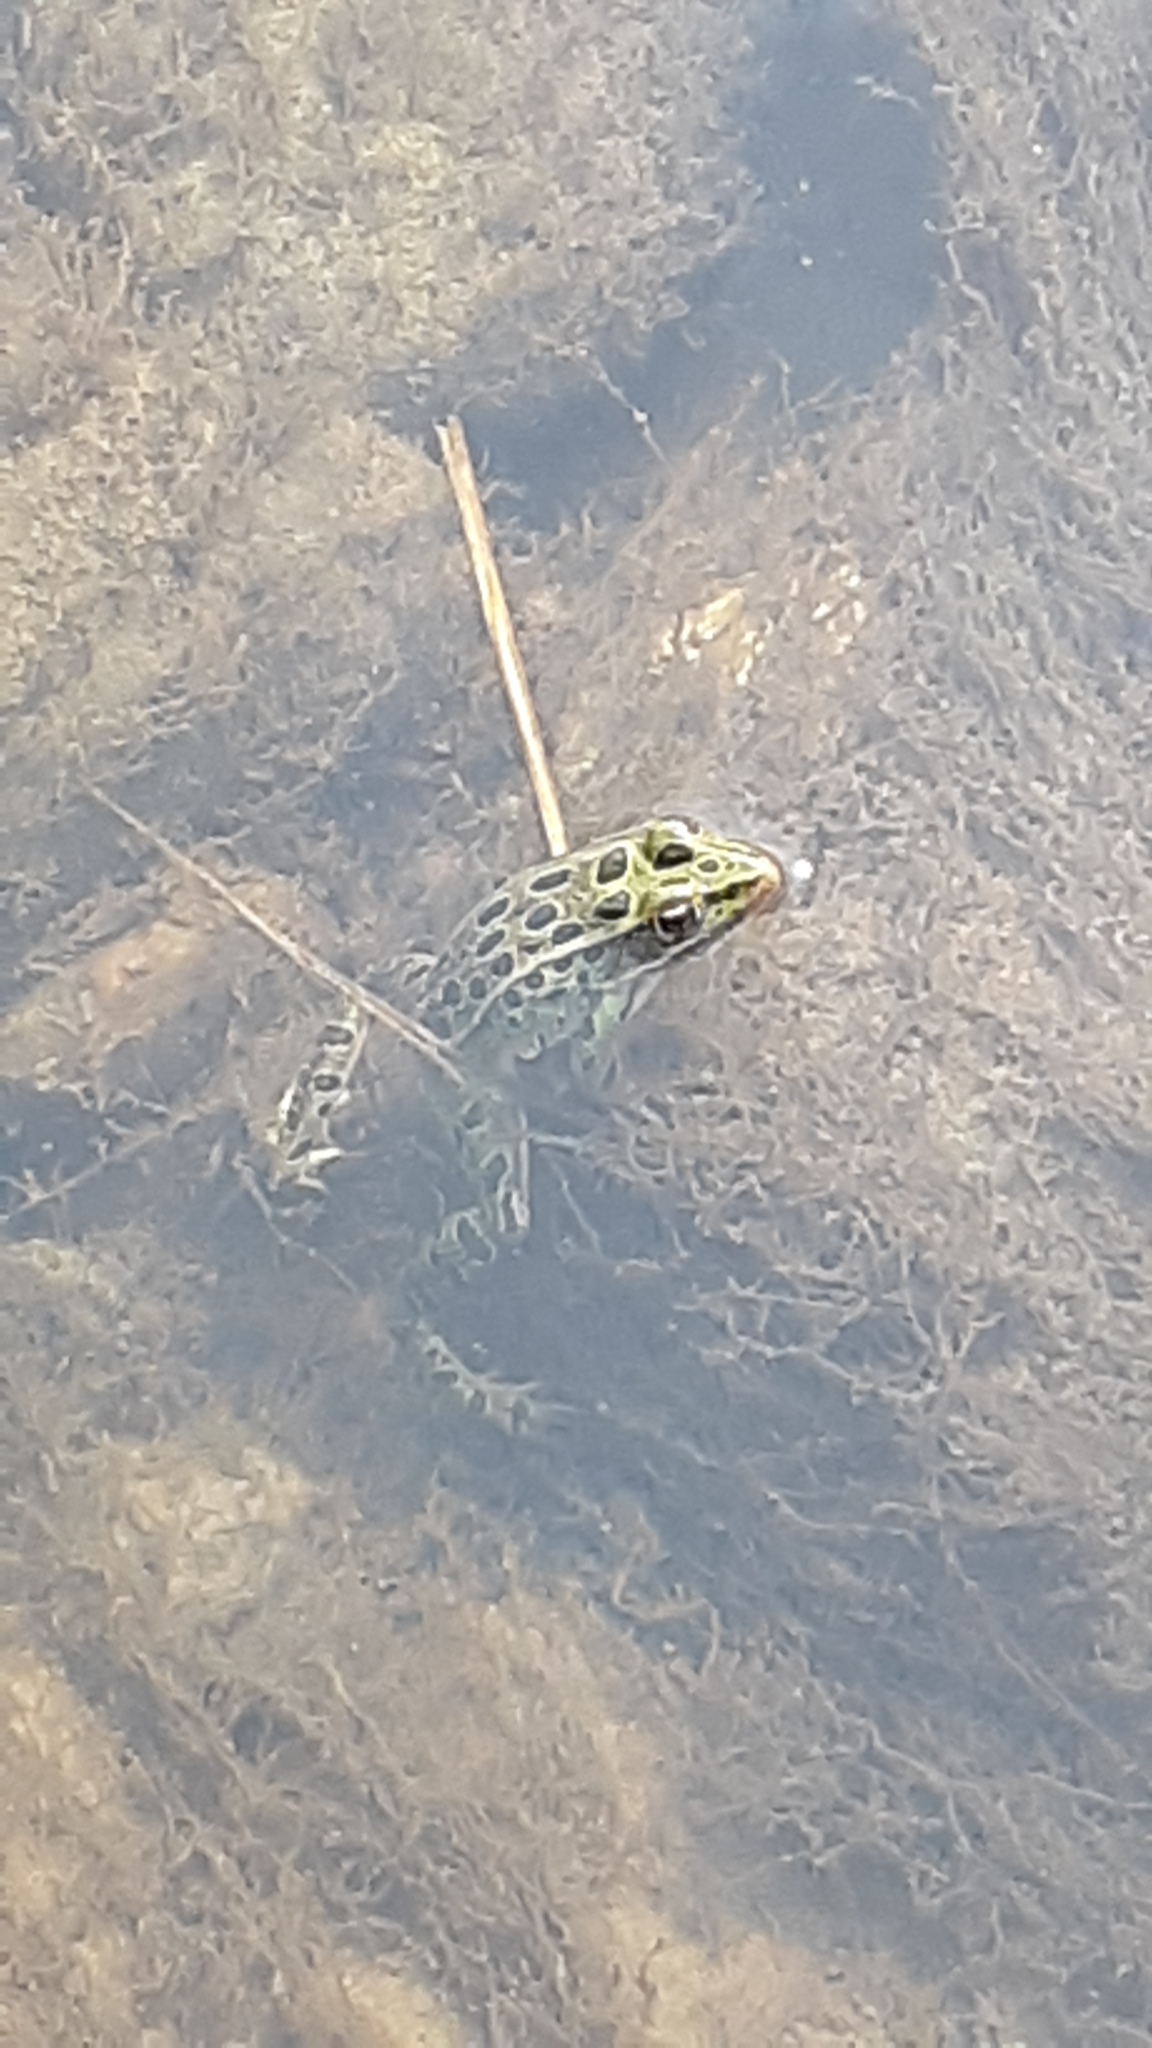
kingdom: Animalia
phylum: Chordata
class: Amphibia
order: Anura
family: Ranidae
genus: Lithobates
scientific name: Lithobates pipiens
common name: Northern leopard frog
